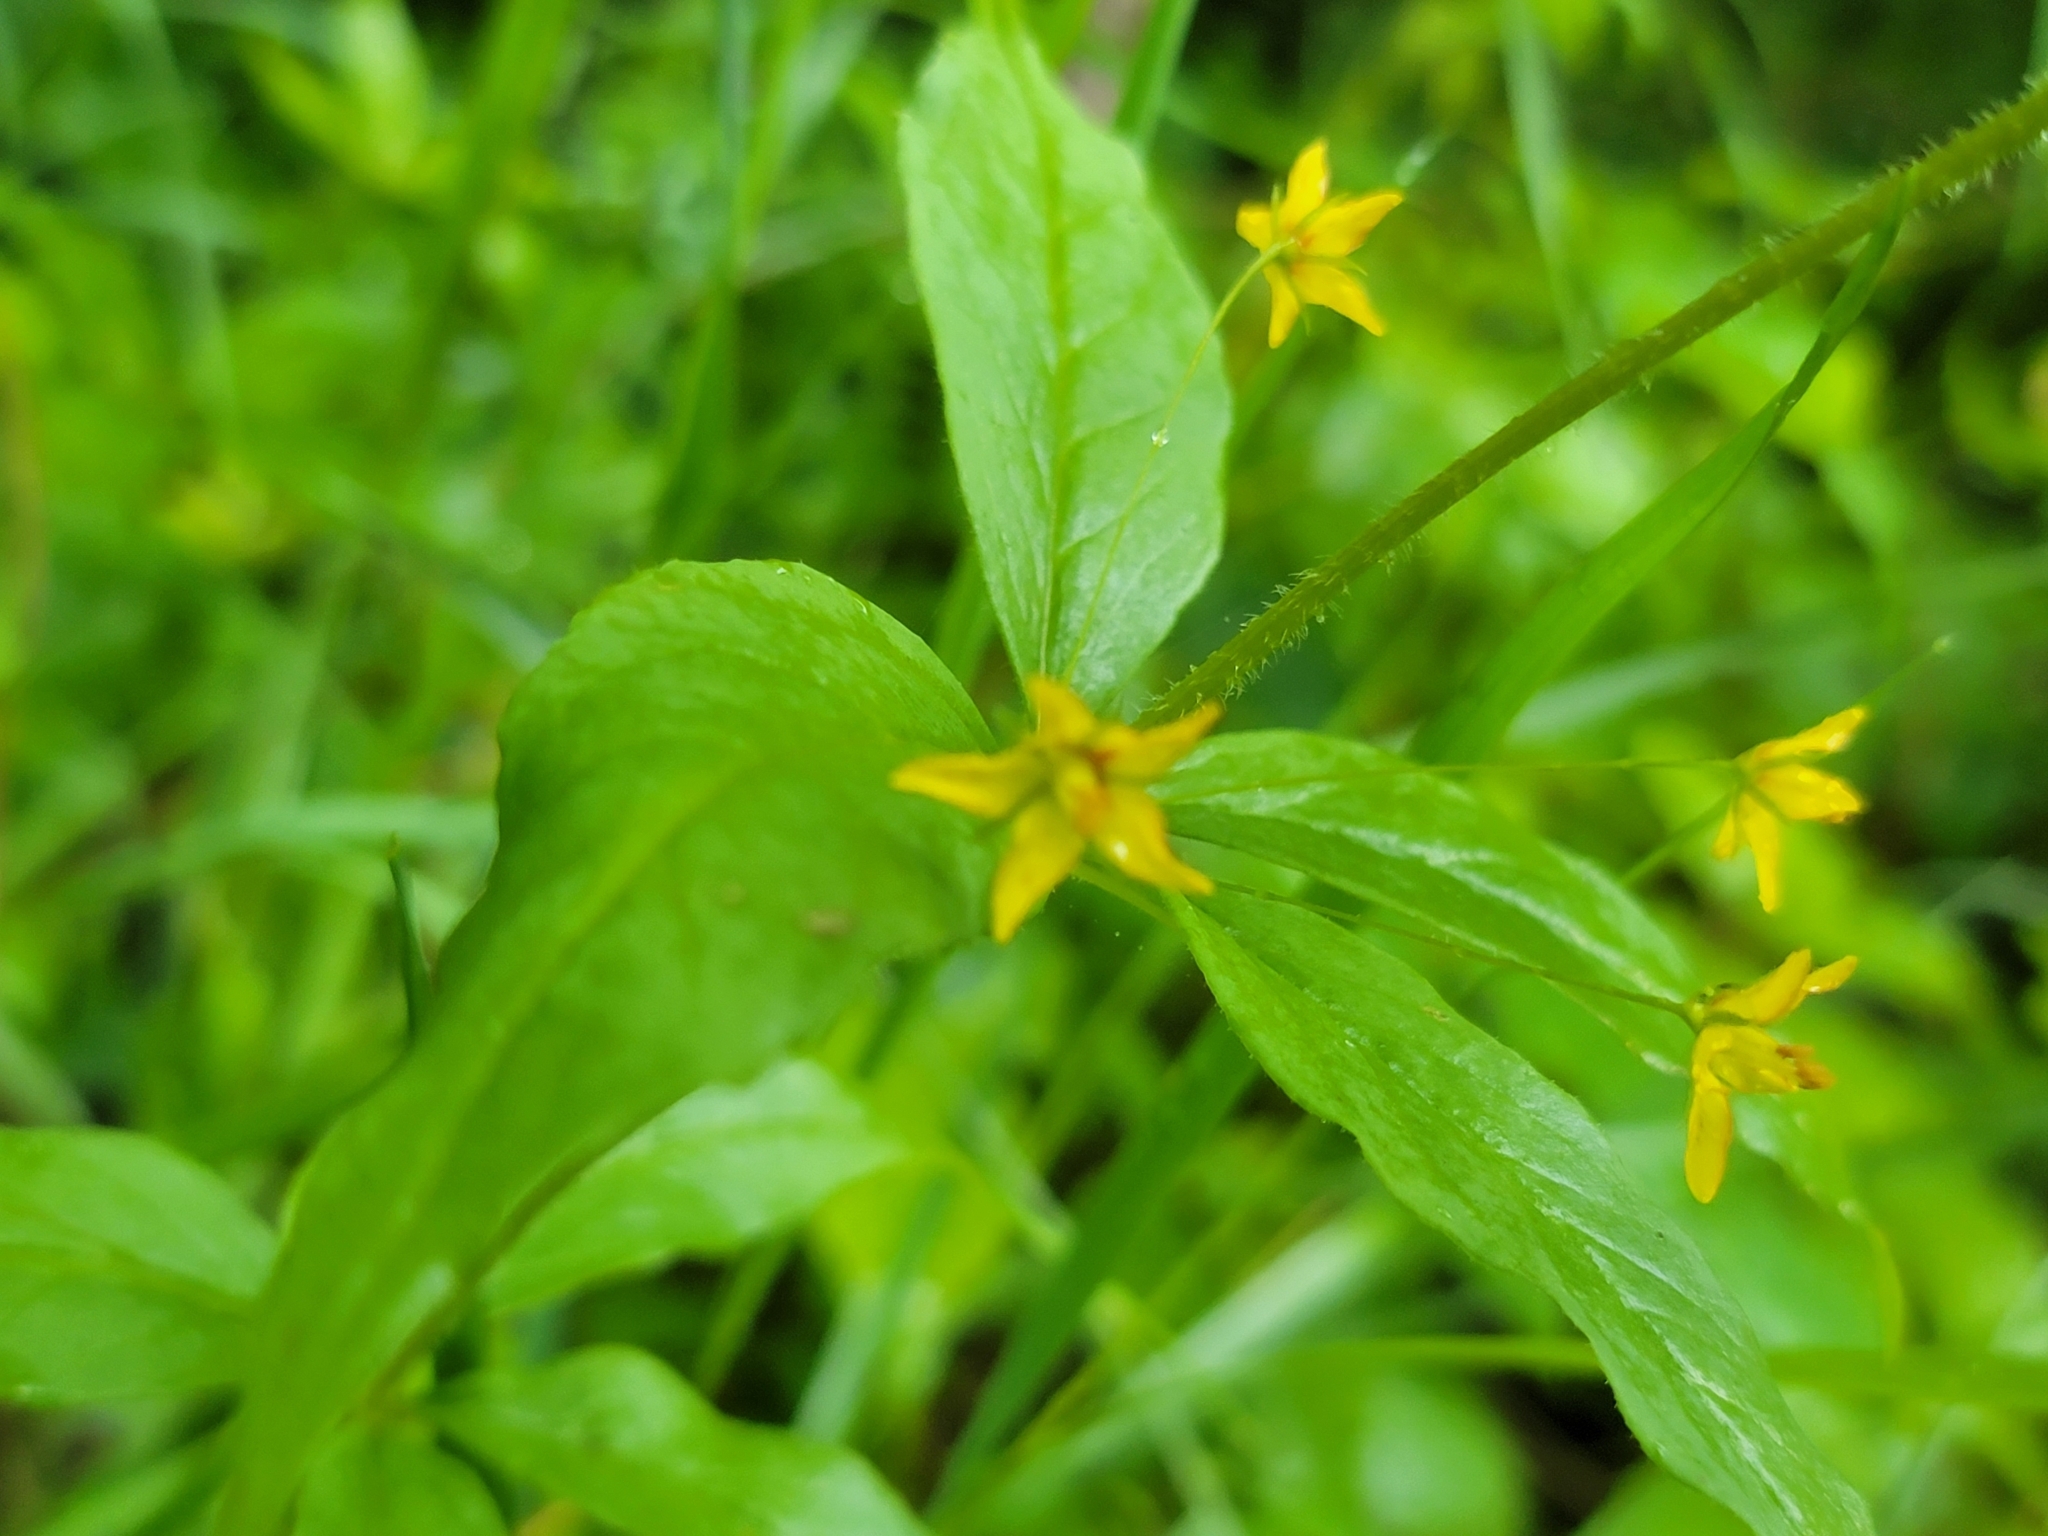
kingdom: Plantae
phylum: Tracheophyta
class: Magnoliopsida
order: Ericales
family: Primulaceae
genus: Lysimachia
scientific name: Lysimachia quadrifolia
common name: Whorled loosestrife
